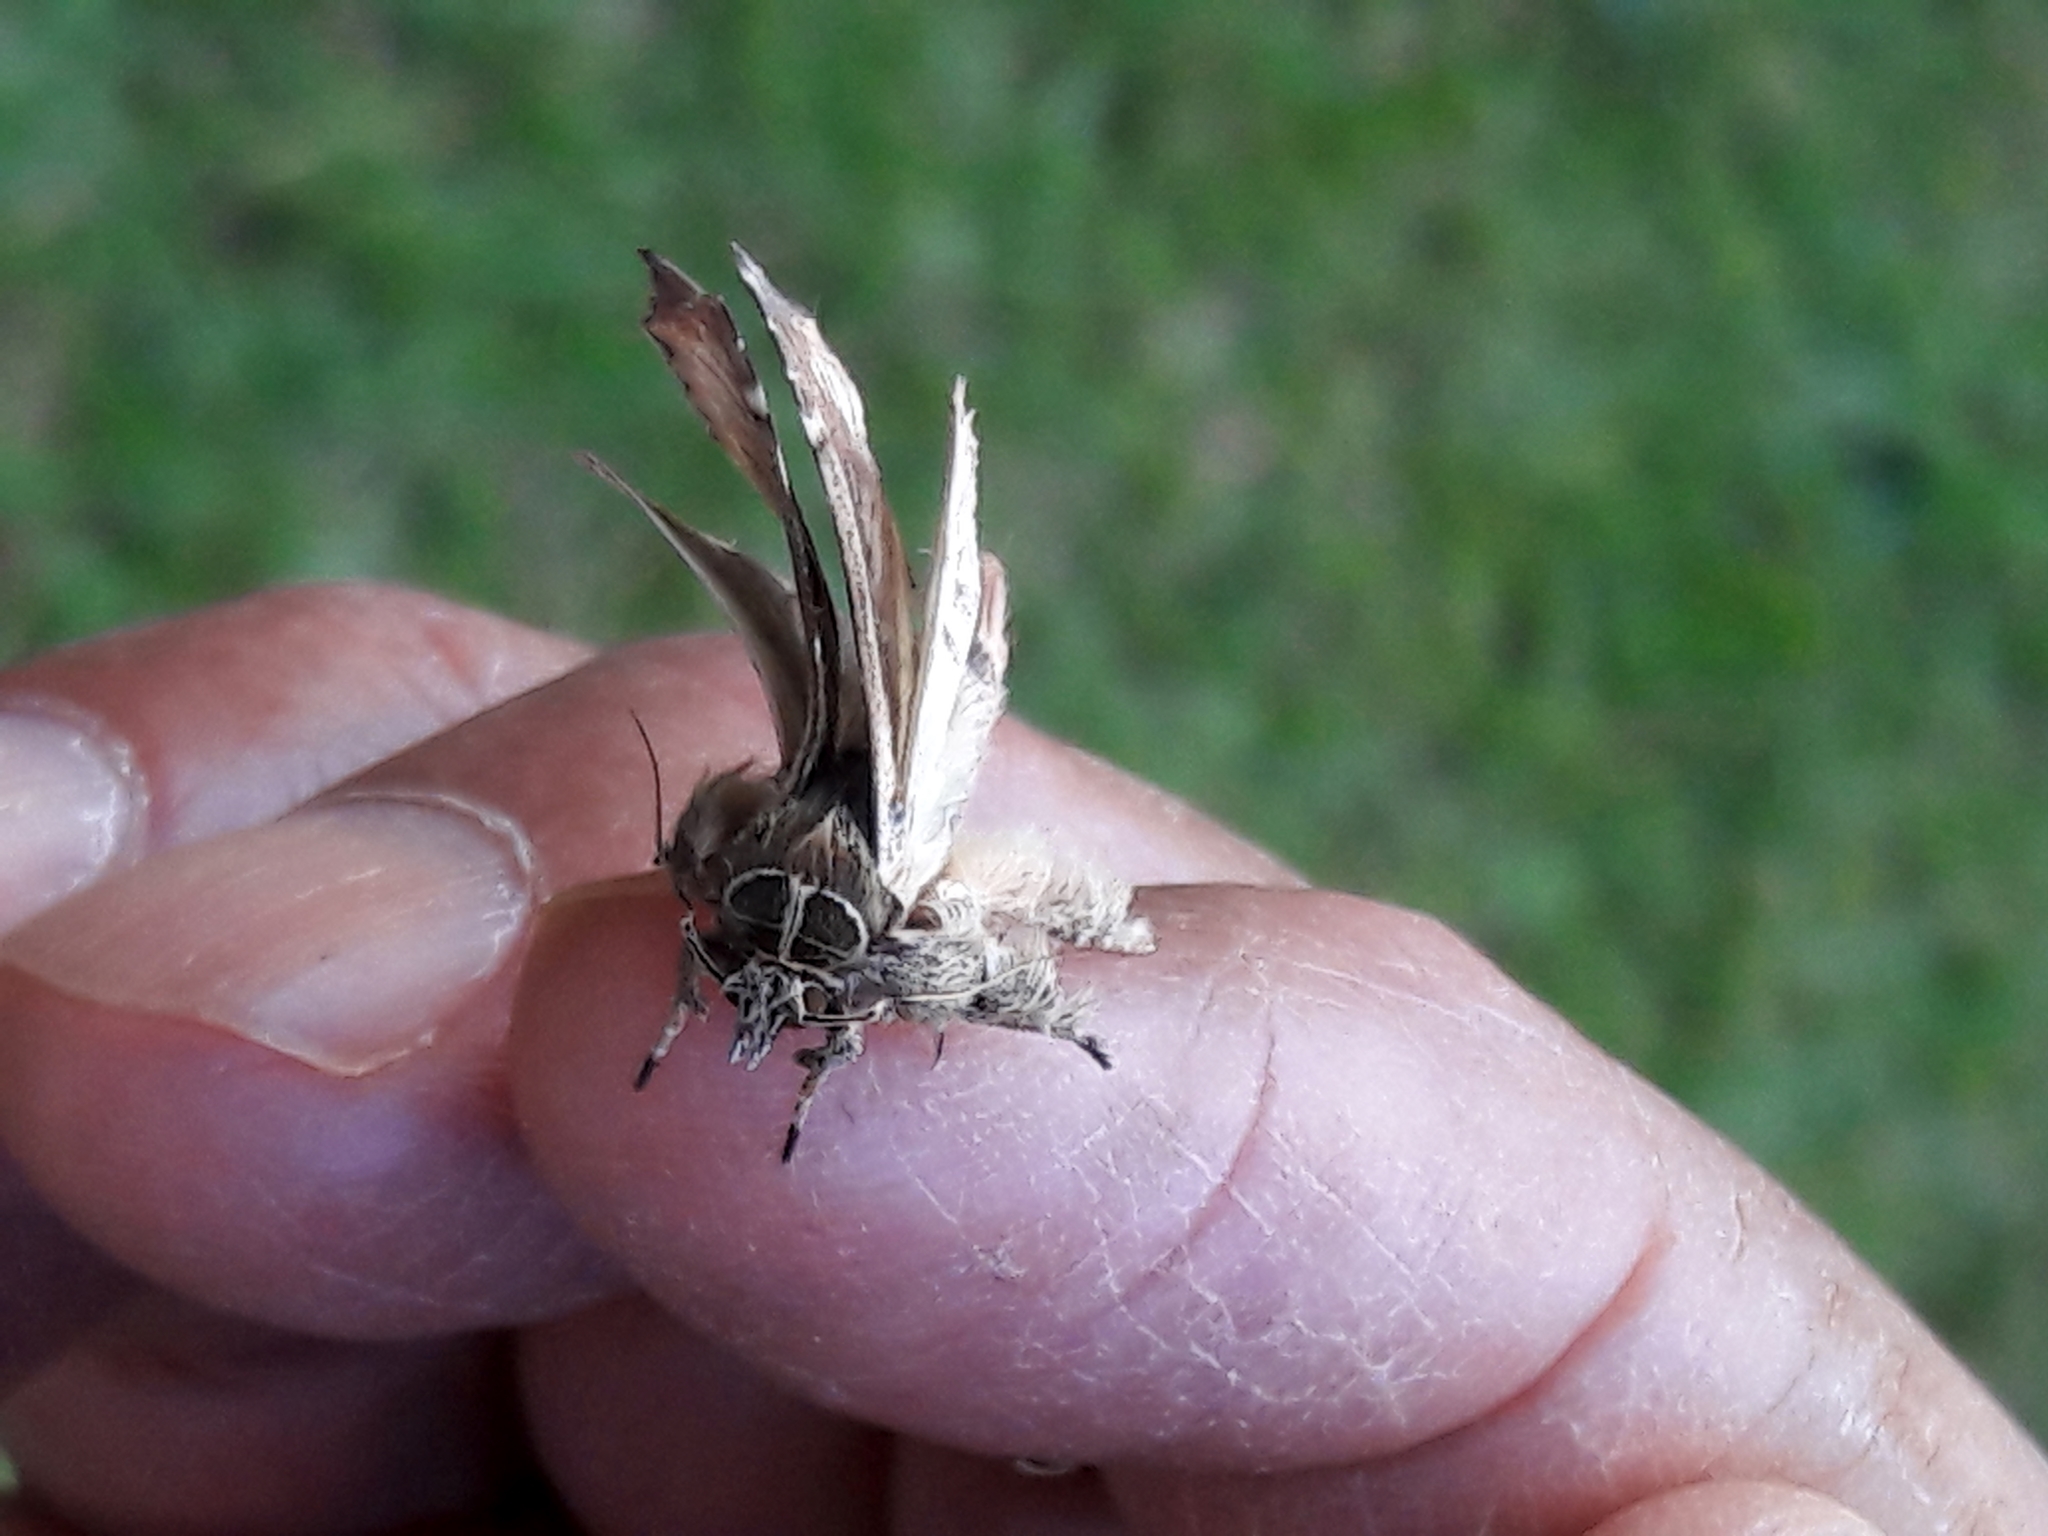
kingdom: Animalia
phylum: Arthropoda
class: Insecta
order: Lepidoptera
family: Noctuidae
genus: Callopistria
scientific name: Callopistria floridensis
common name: Florida fern moth
